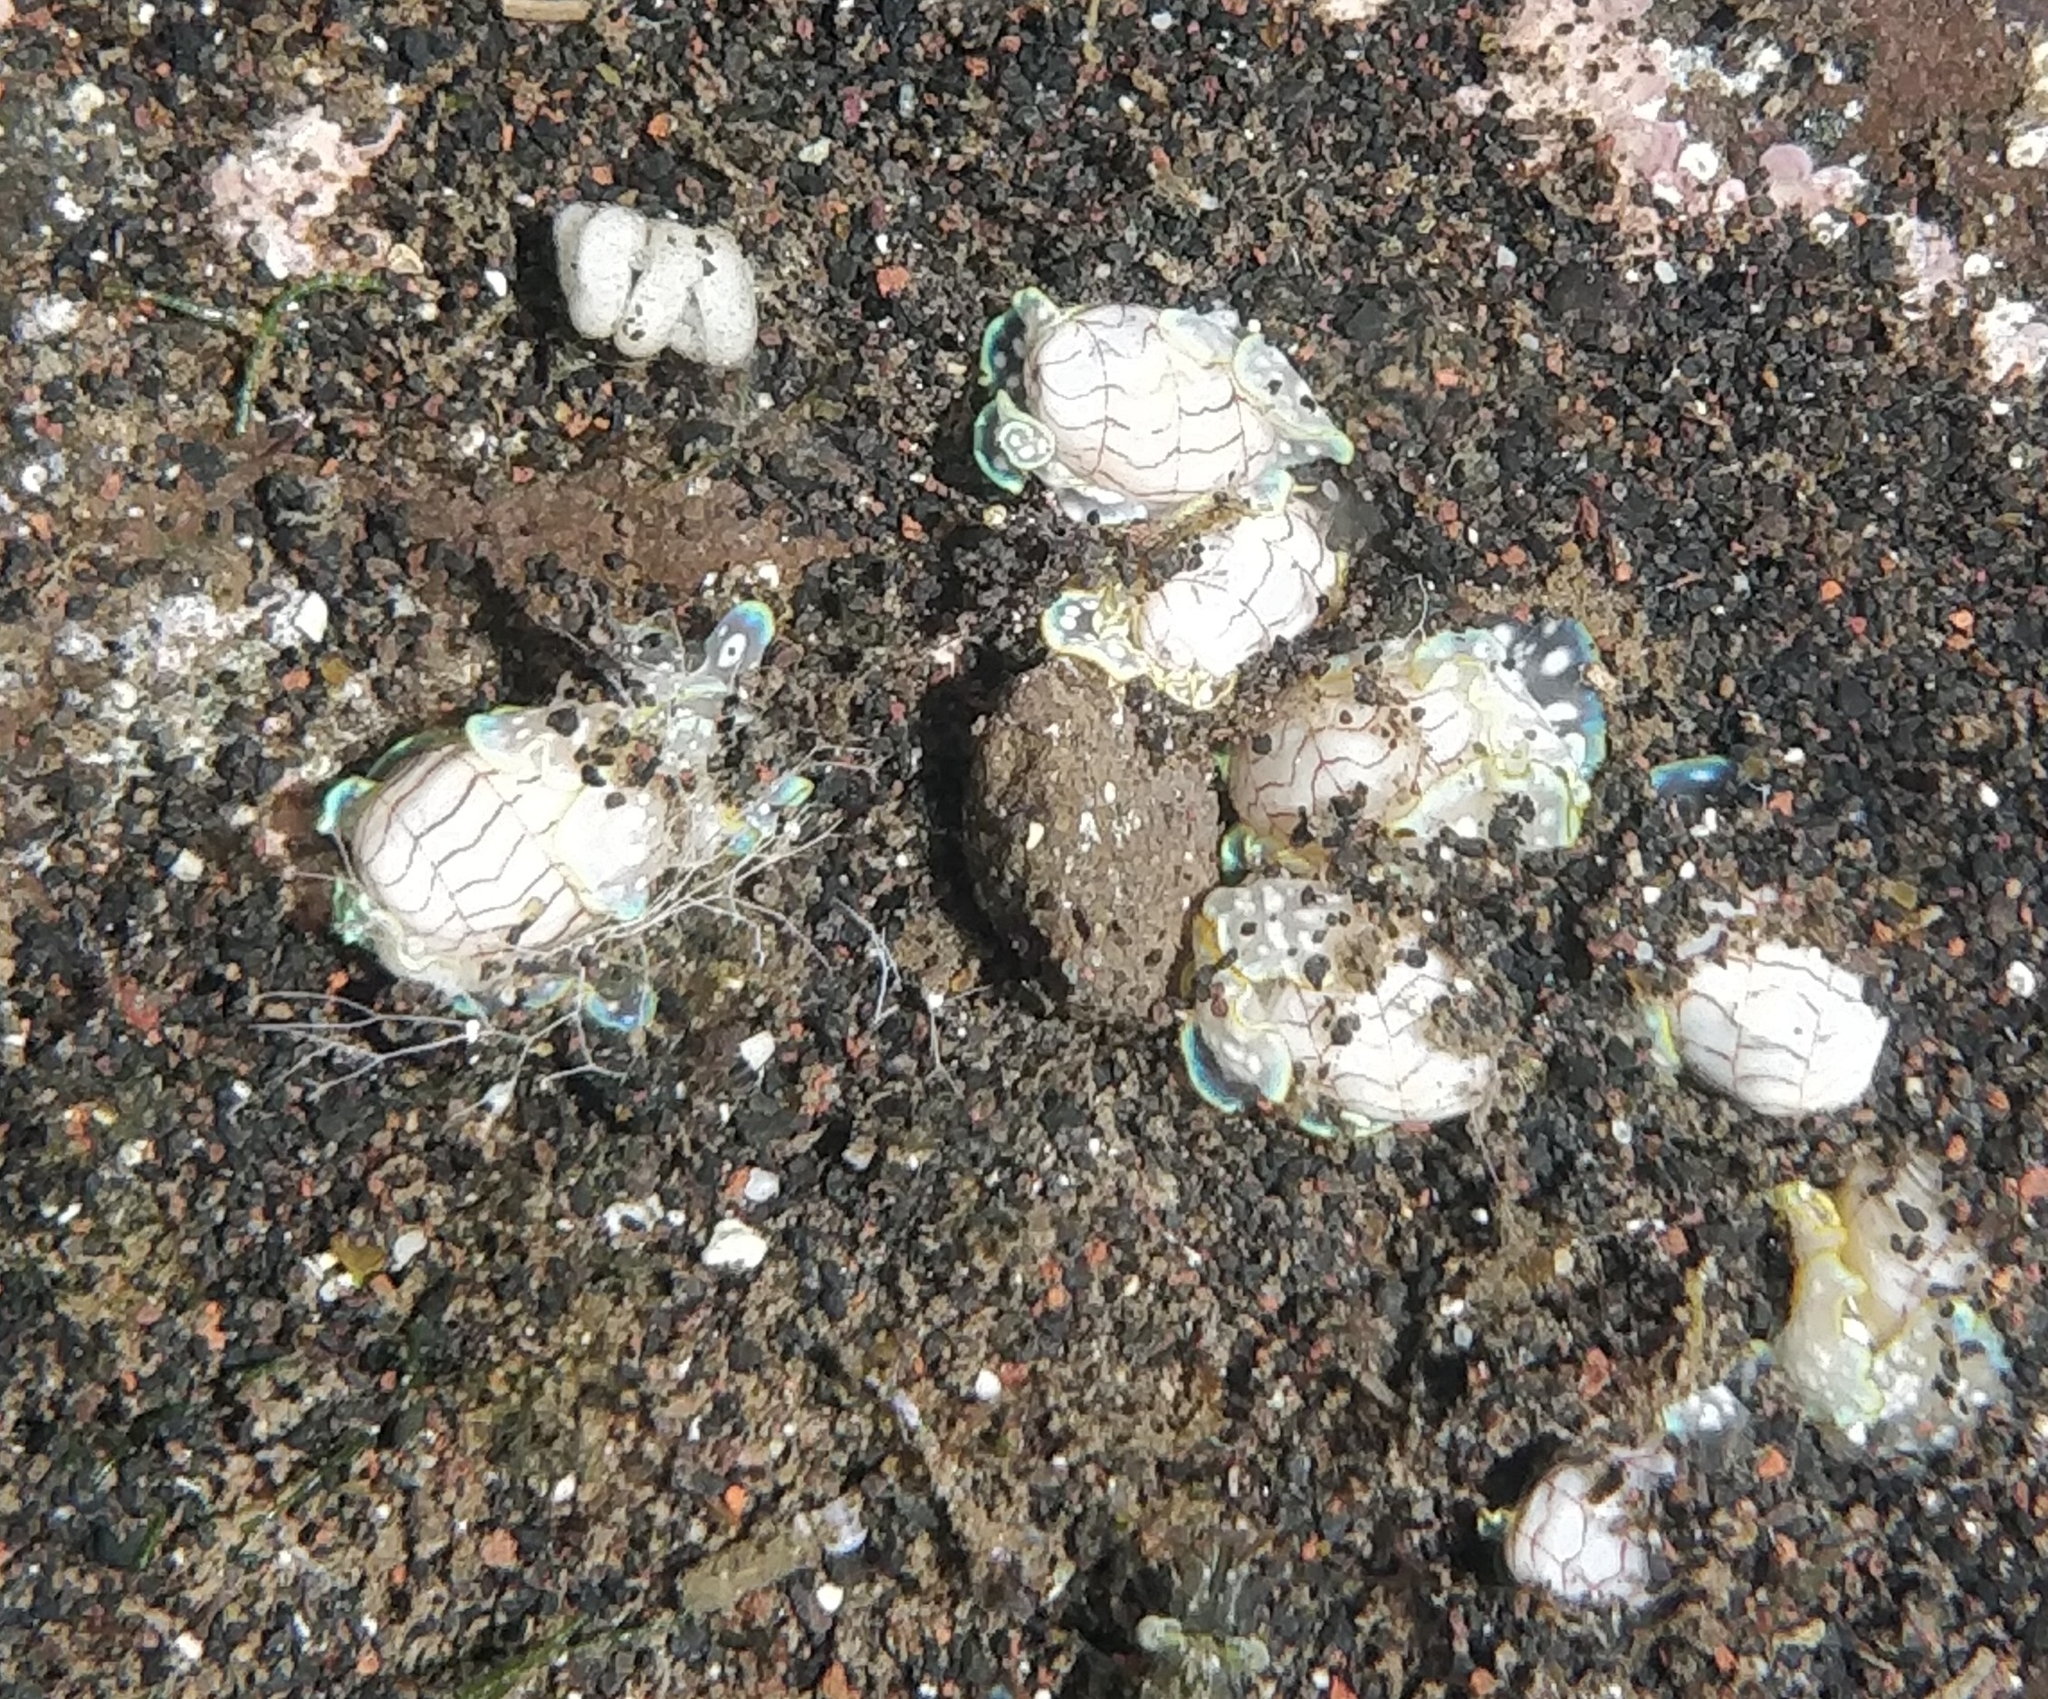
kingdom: Animalia
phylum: Mollusca
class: Gastropoda
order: Cephalaspidea
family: Aplustridae
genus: Micromelo
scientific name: Micromelo undatus
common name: Miniature melo
